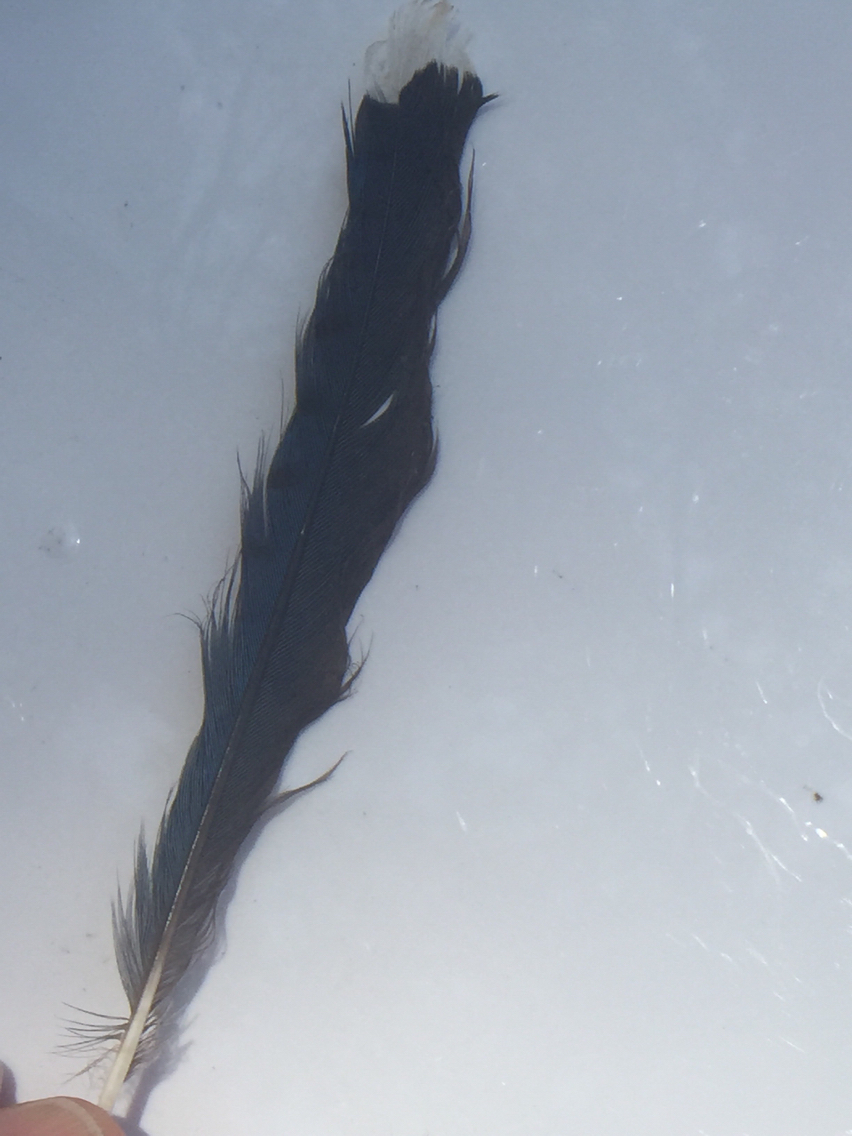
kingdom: Animalia
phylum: Chordata
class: Aves
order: Passeriformes
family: Corvidae
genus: Cyanocitta
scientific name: Cyanocitta cristata
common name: Blue jay
